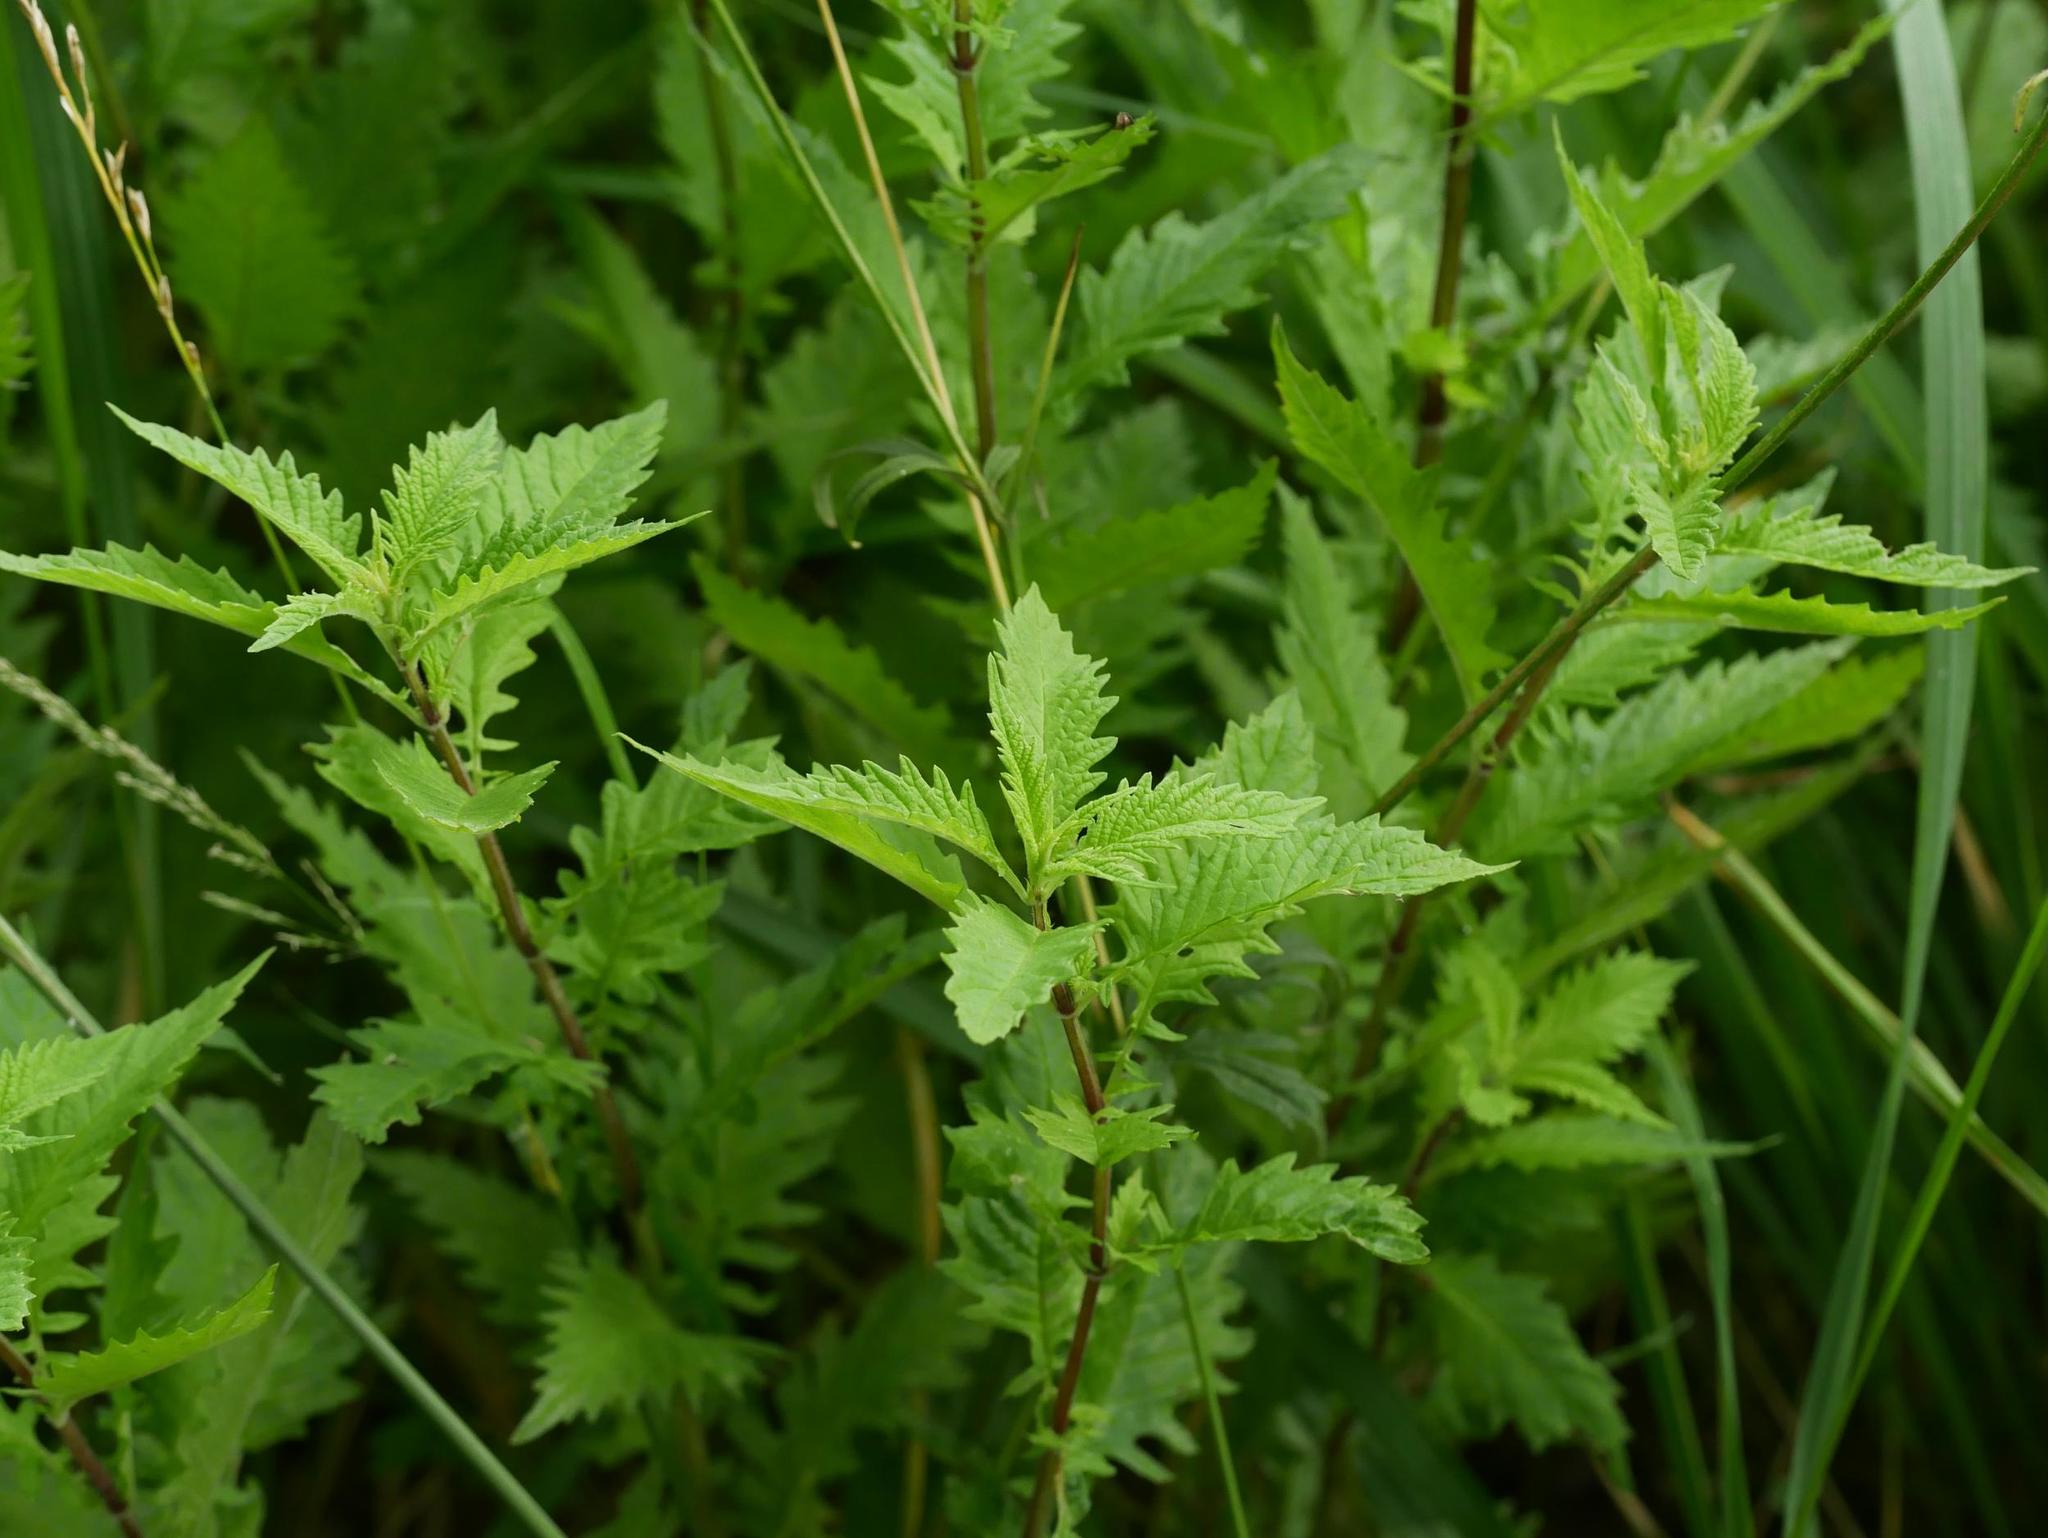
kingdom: Plantae
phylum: Tracheophyta
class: Magnoliopsida
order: Lamiales
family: Lamiaceae
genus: Lycopus
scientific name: Lycopus europaeus
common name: European bugleweed
